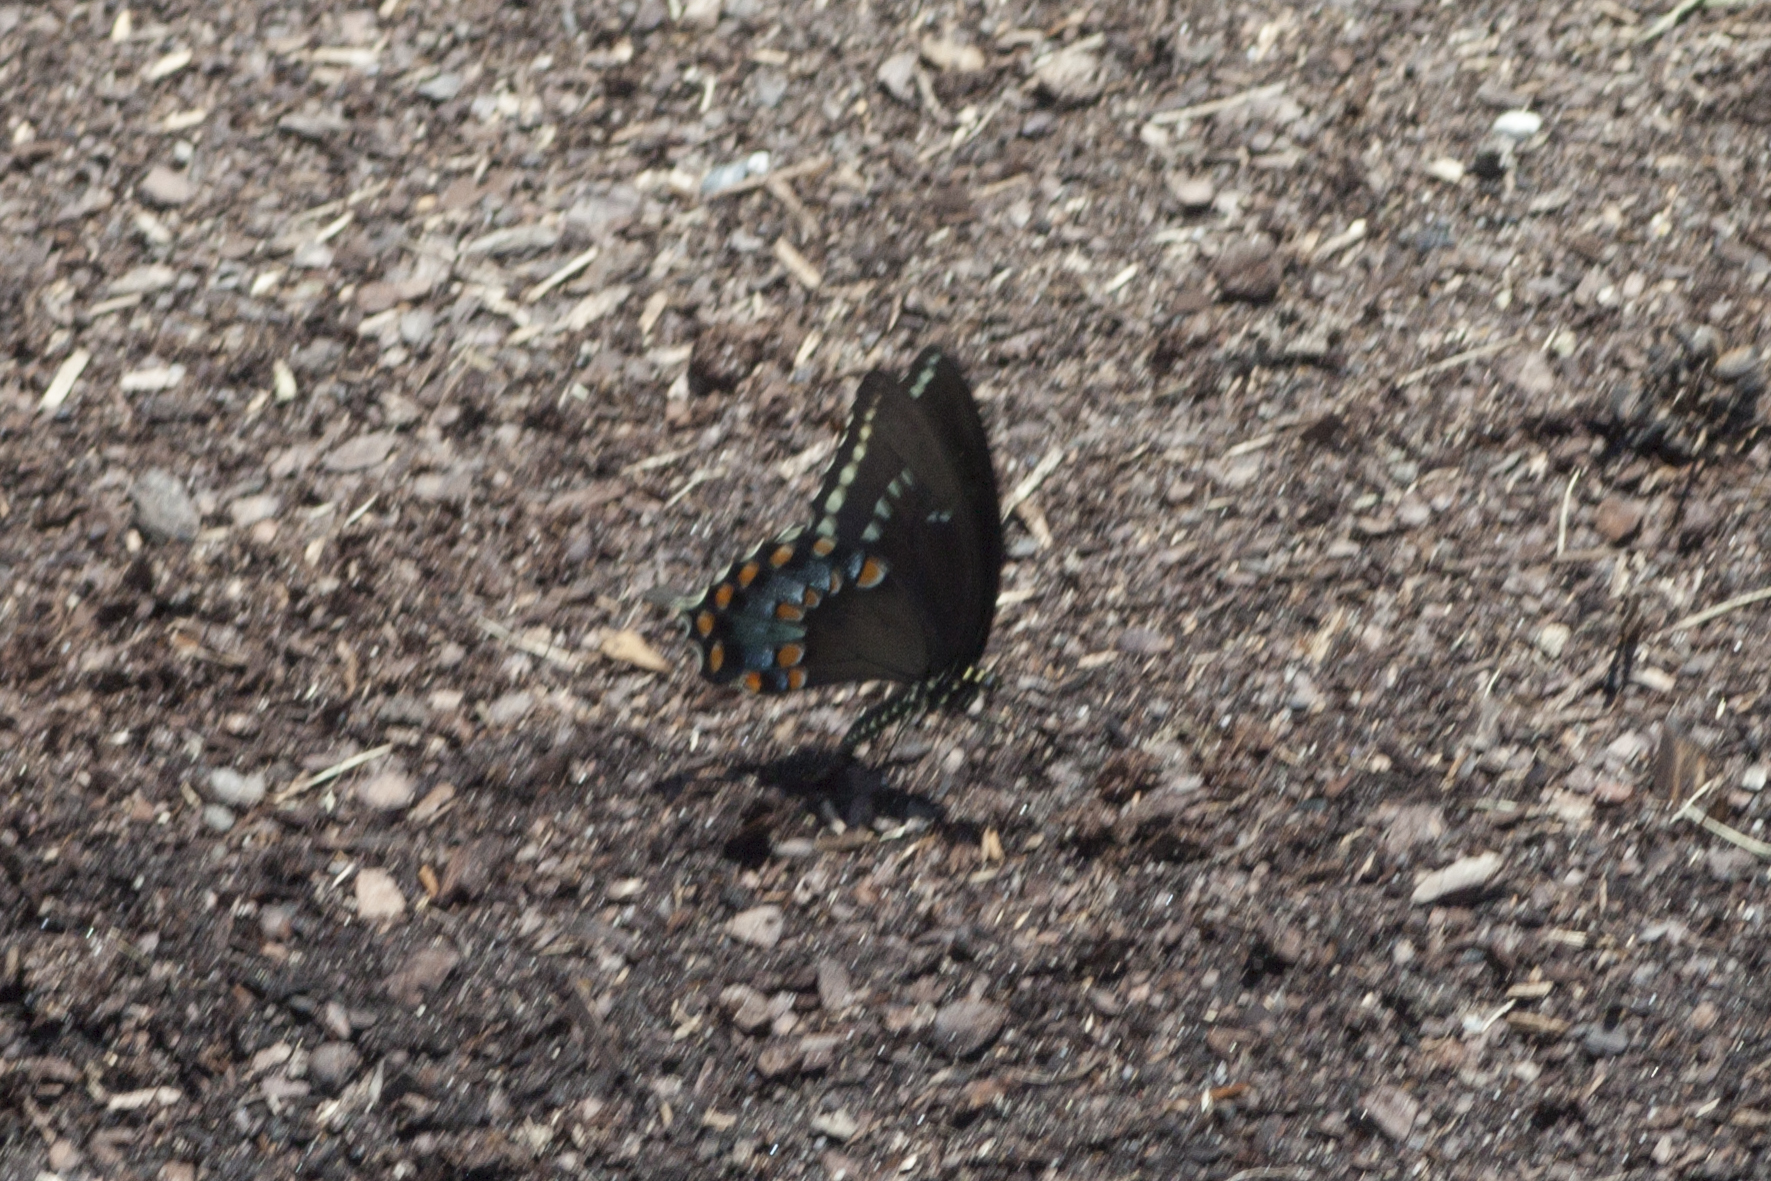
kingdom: Animalia
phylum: Arthropoda
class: Insecta
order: Lepidoptera
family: Papilionidae
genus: Papilio
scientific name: Papilio troilus
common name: Spicebush swallowtail
